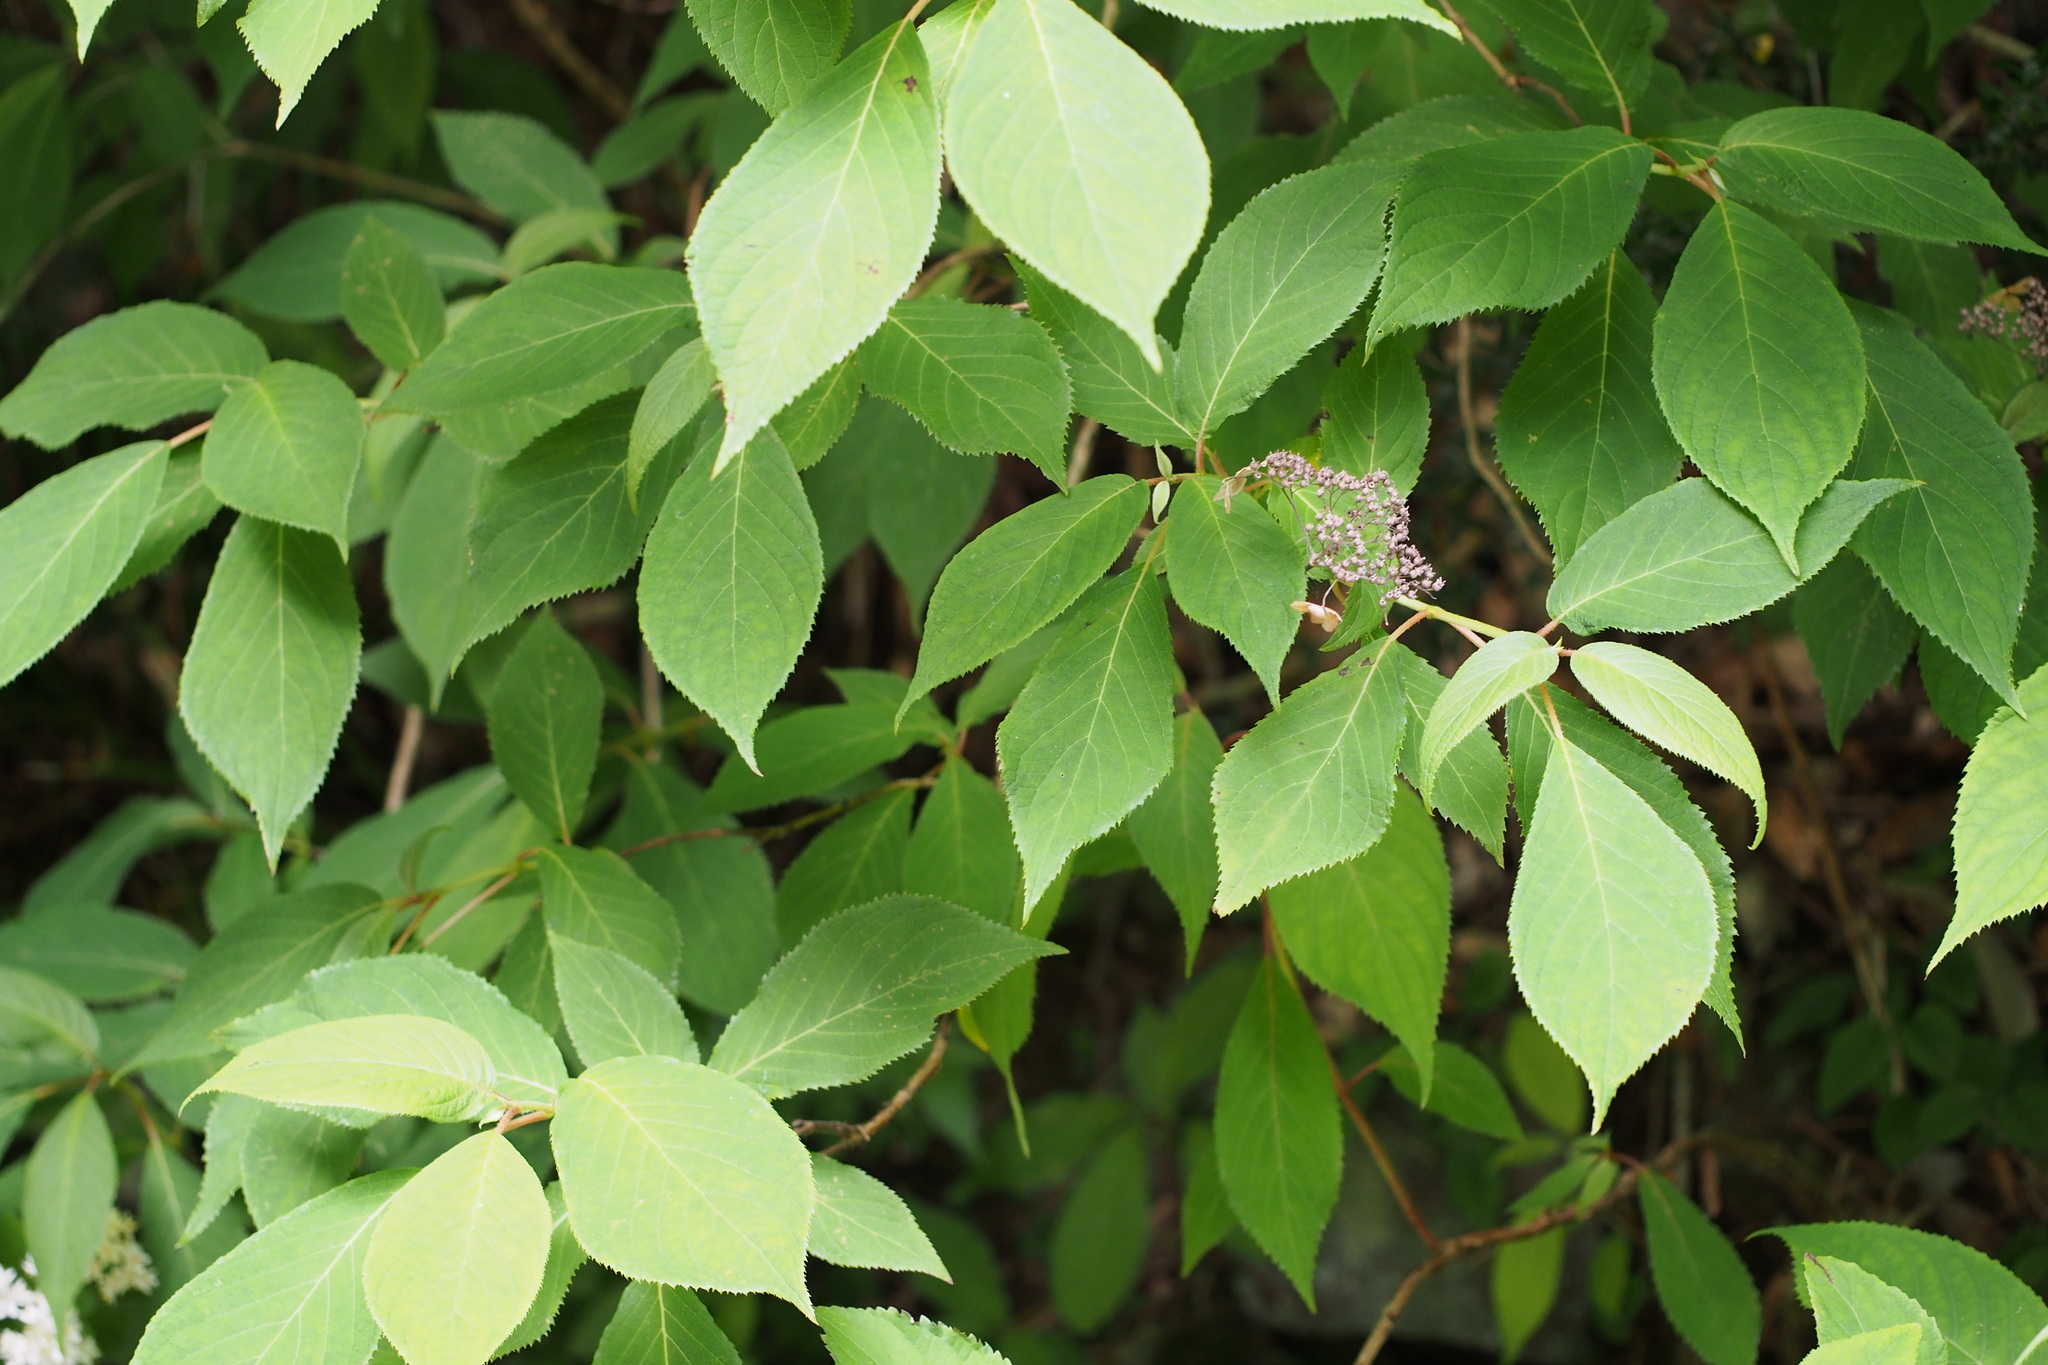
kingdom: Plantae
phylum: Tracheophyta
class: Magnoliopsida
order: Cornales
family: Hydrangeaceae
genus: Hydrangea
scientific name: Hydrangea involucrata
